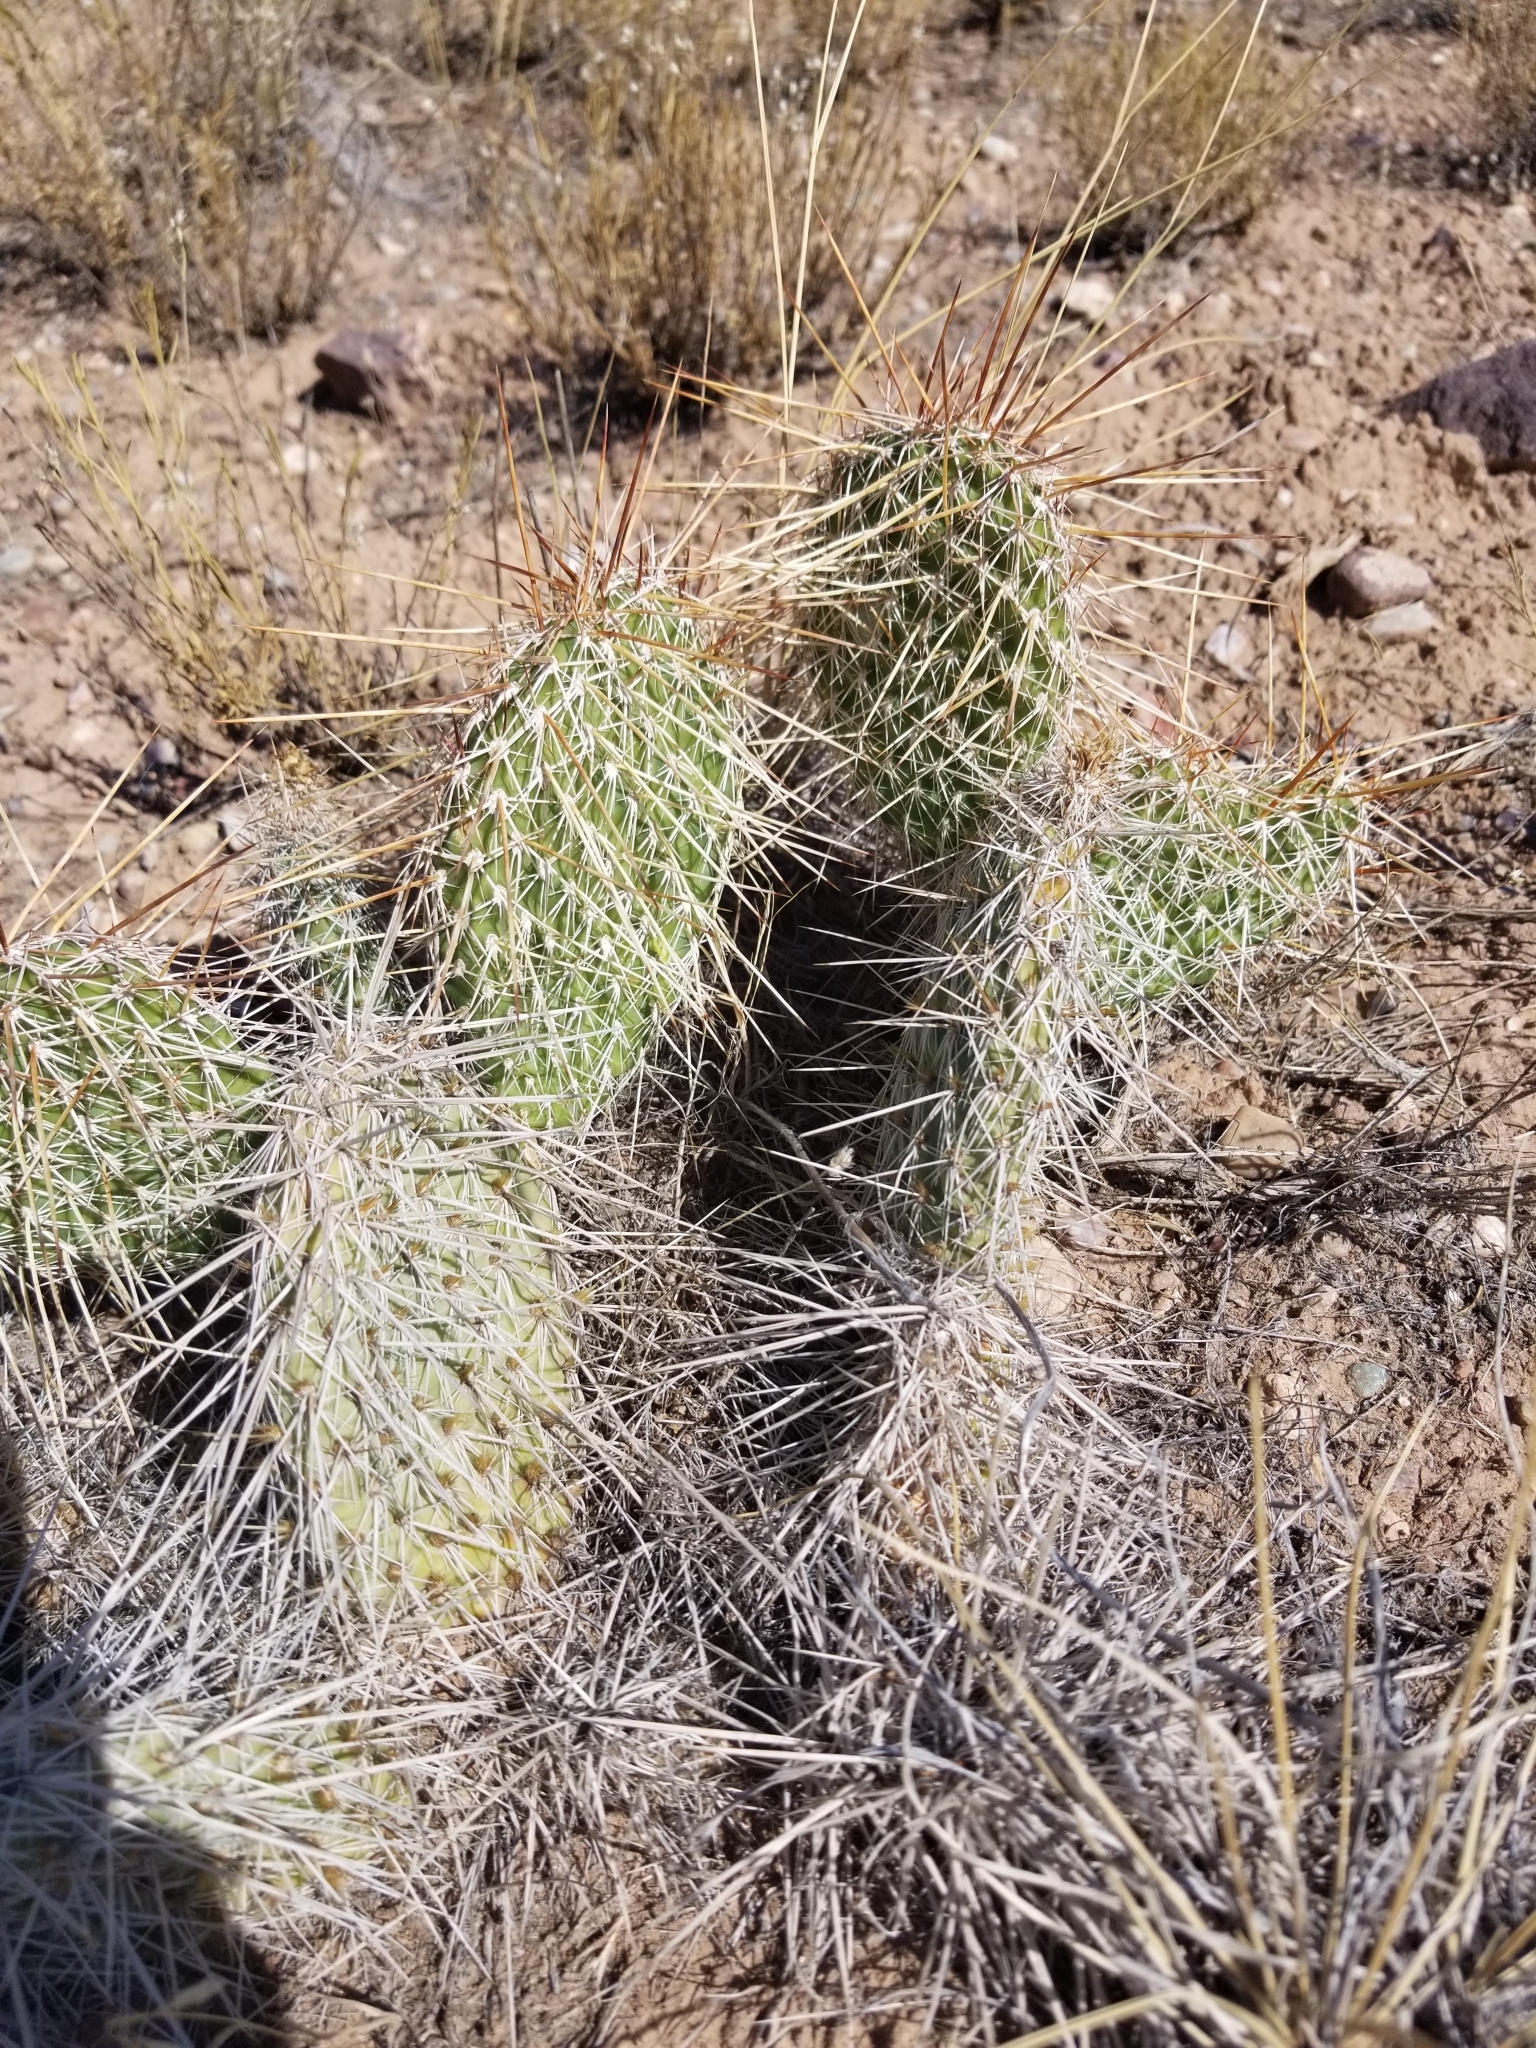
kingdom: Plantae
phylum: Tracheophyta
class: Magnoliopsida
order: Caryophyllales
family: Cactaceae
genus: Opuntia
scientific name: Opuntia polyacantha
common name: Plains prickly-pear
